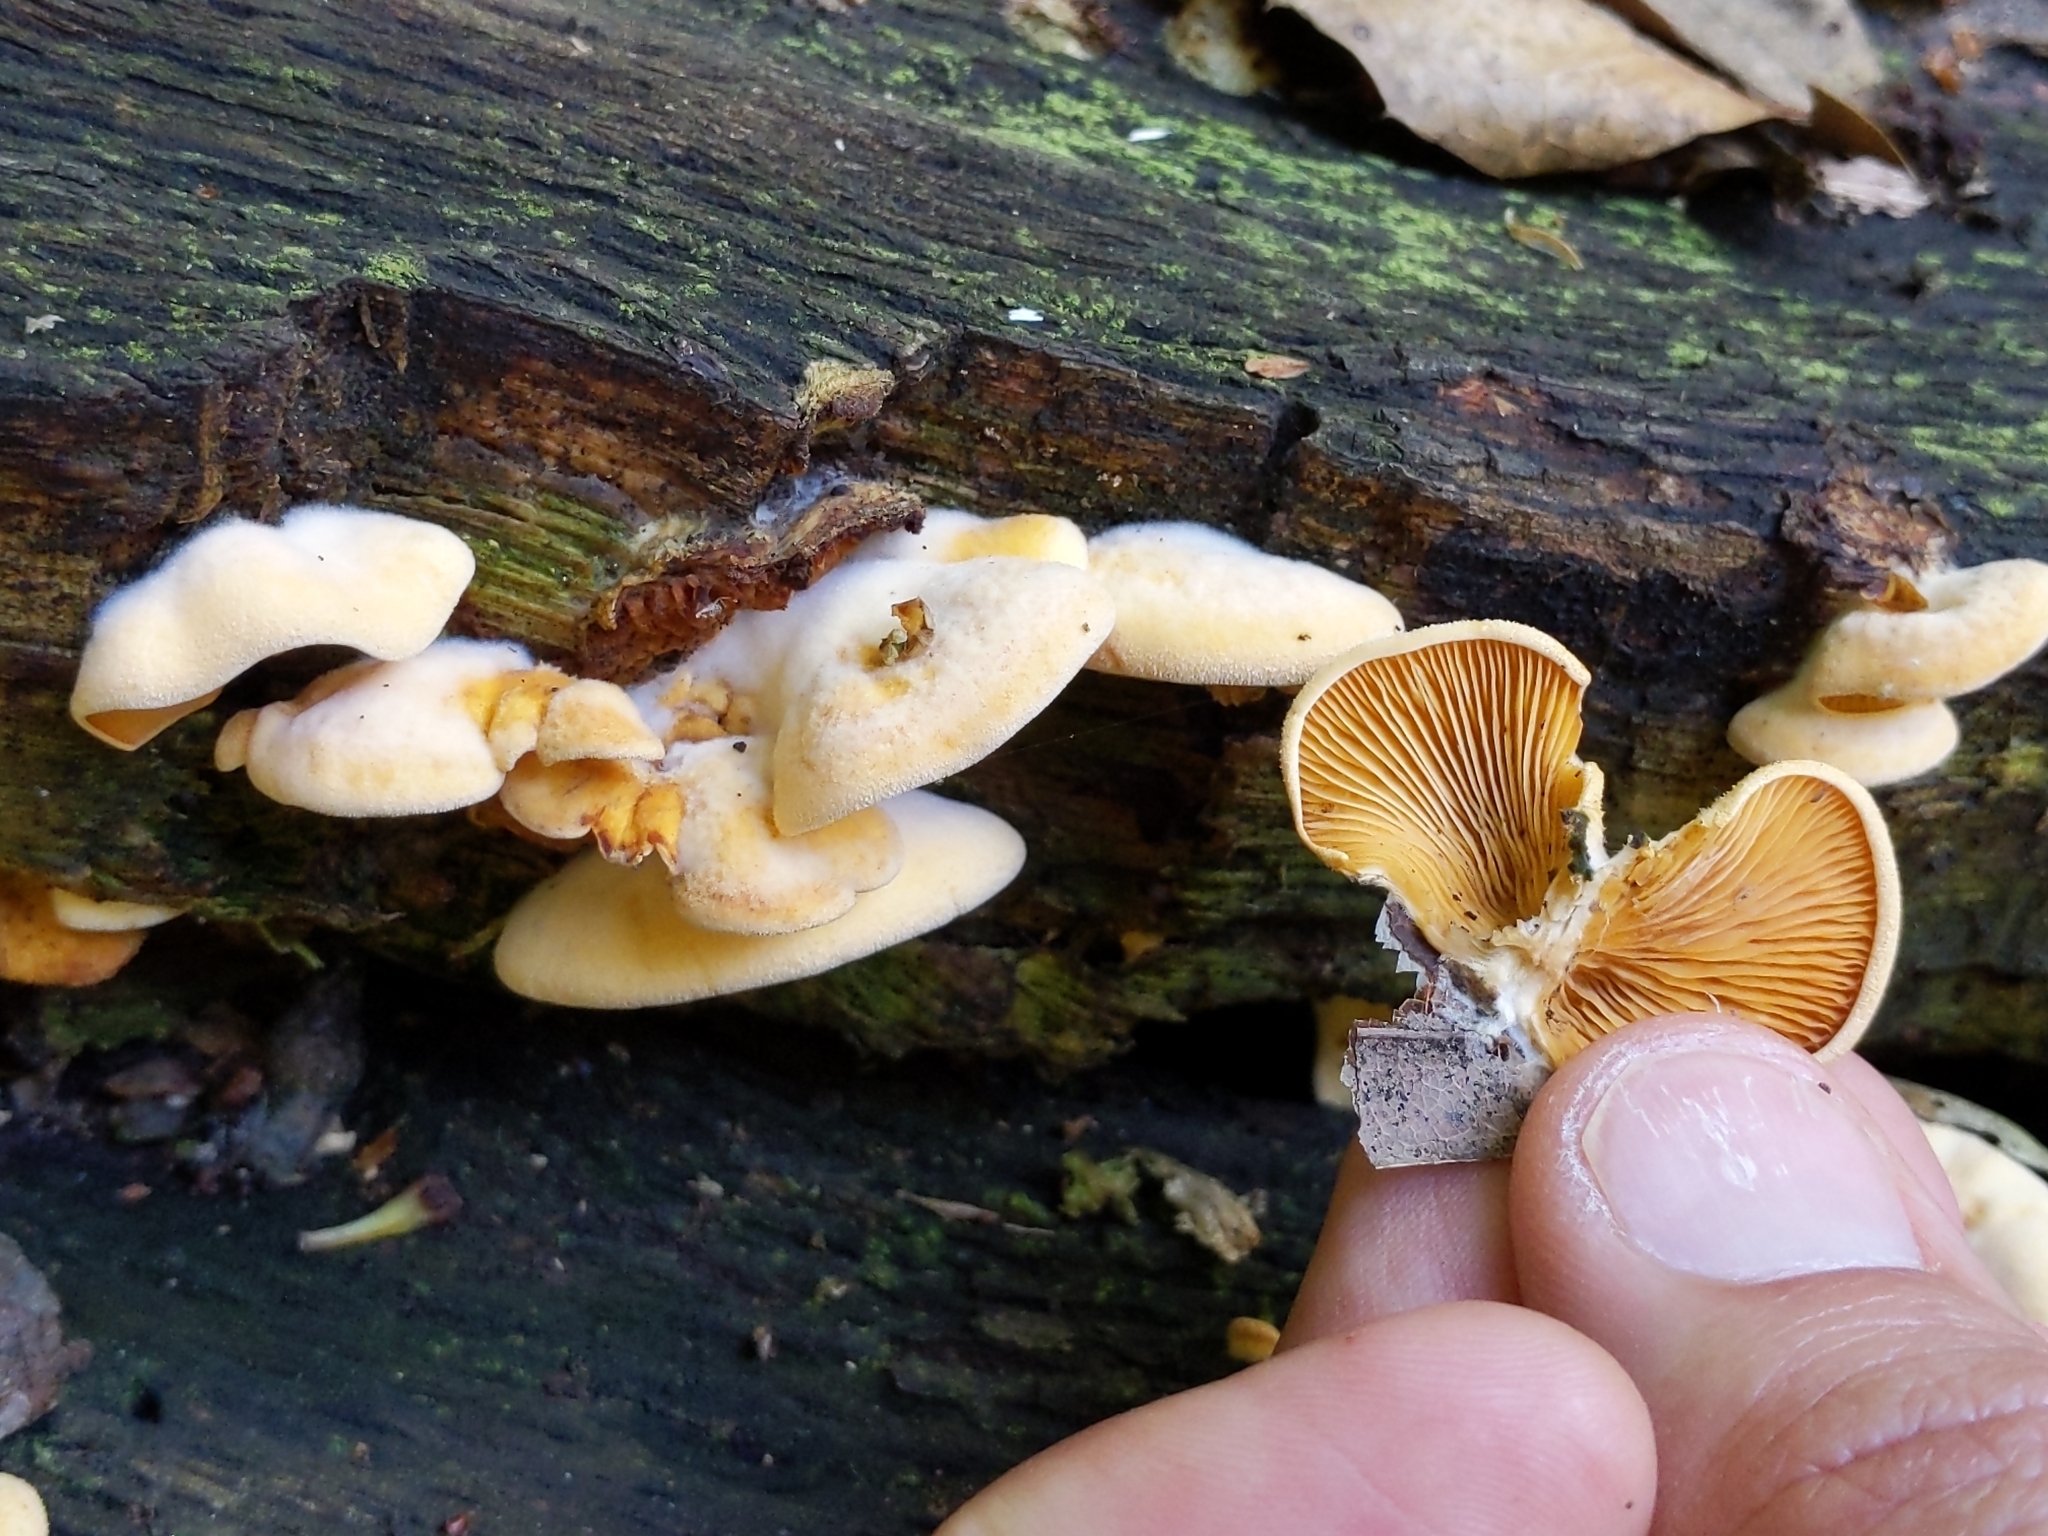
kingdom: Fungi
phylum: Basidiomycota
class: Agaricomycetes
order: Agaricales
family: Phyllotopsidaceae
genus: Phyllotopsis
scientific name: Phyllotopsis nidulans
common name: Orange mock oyster
